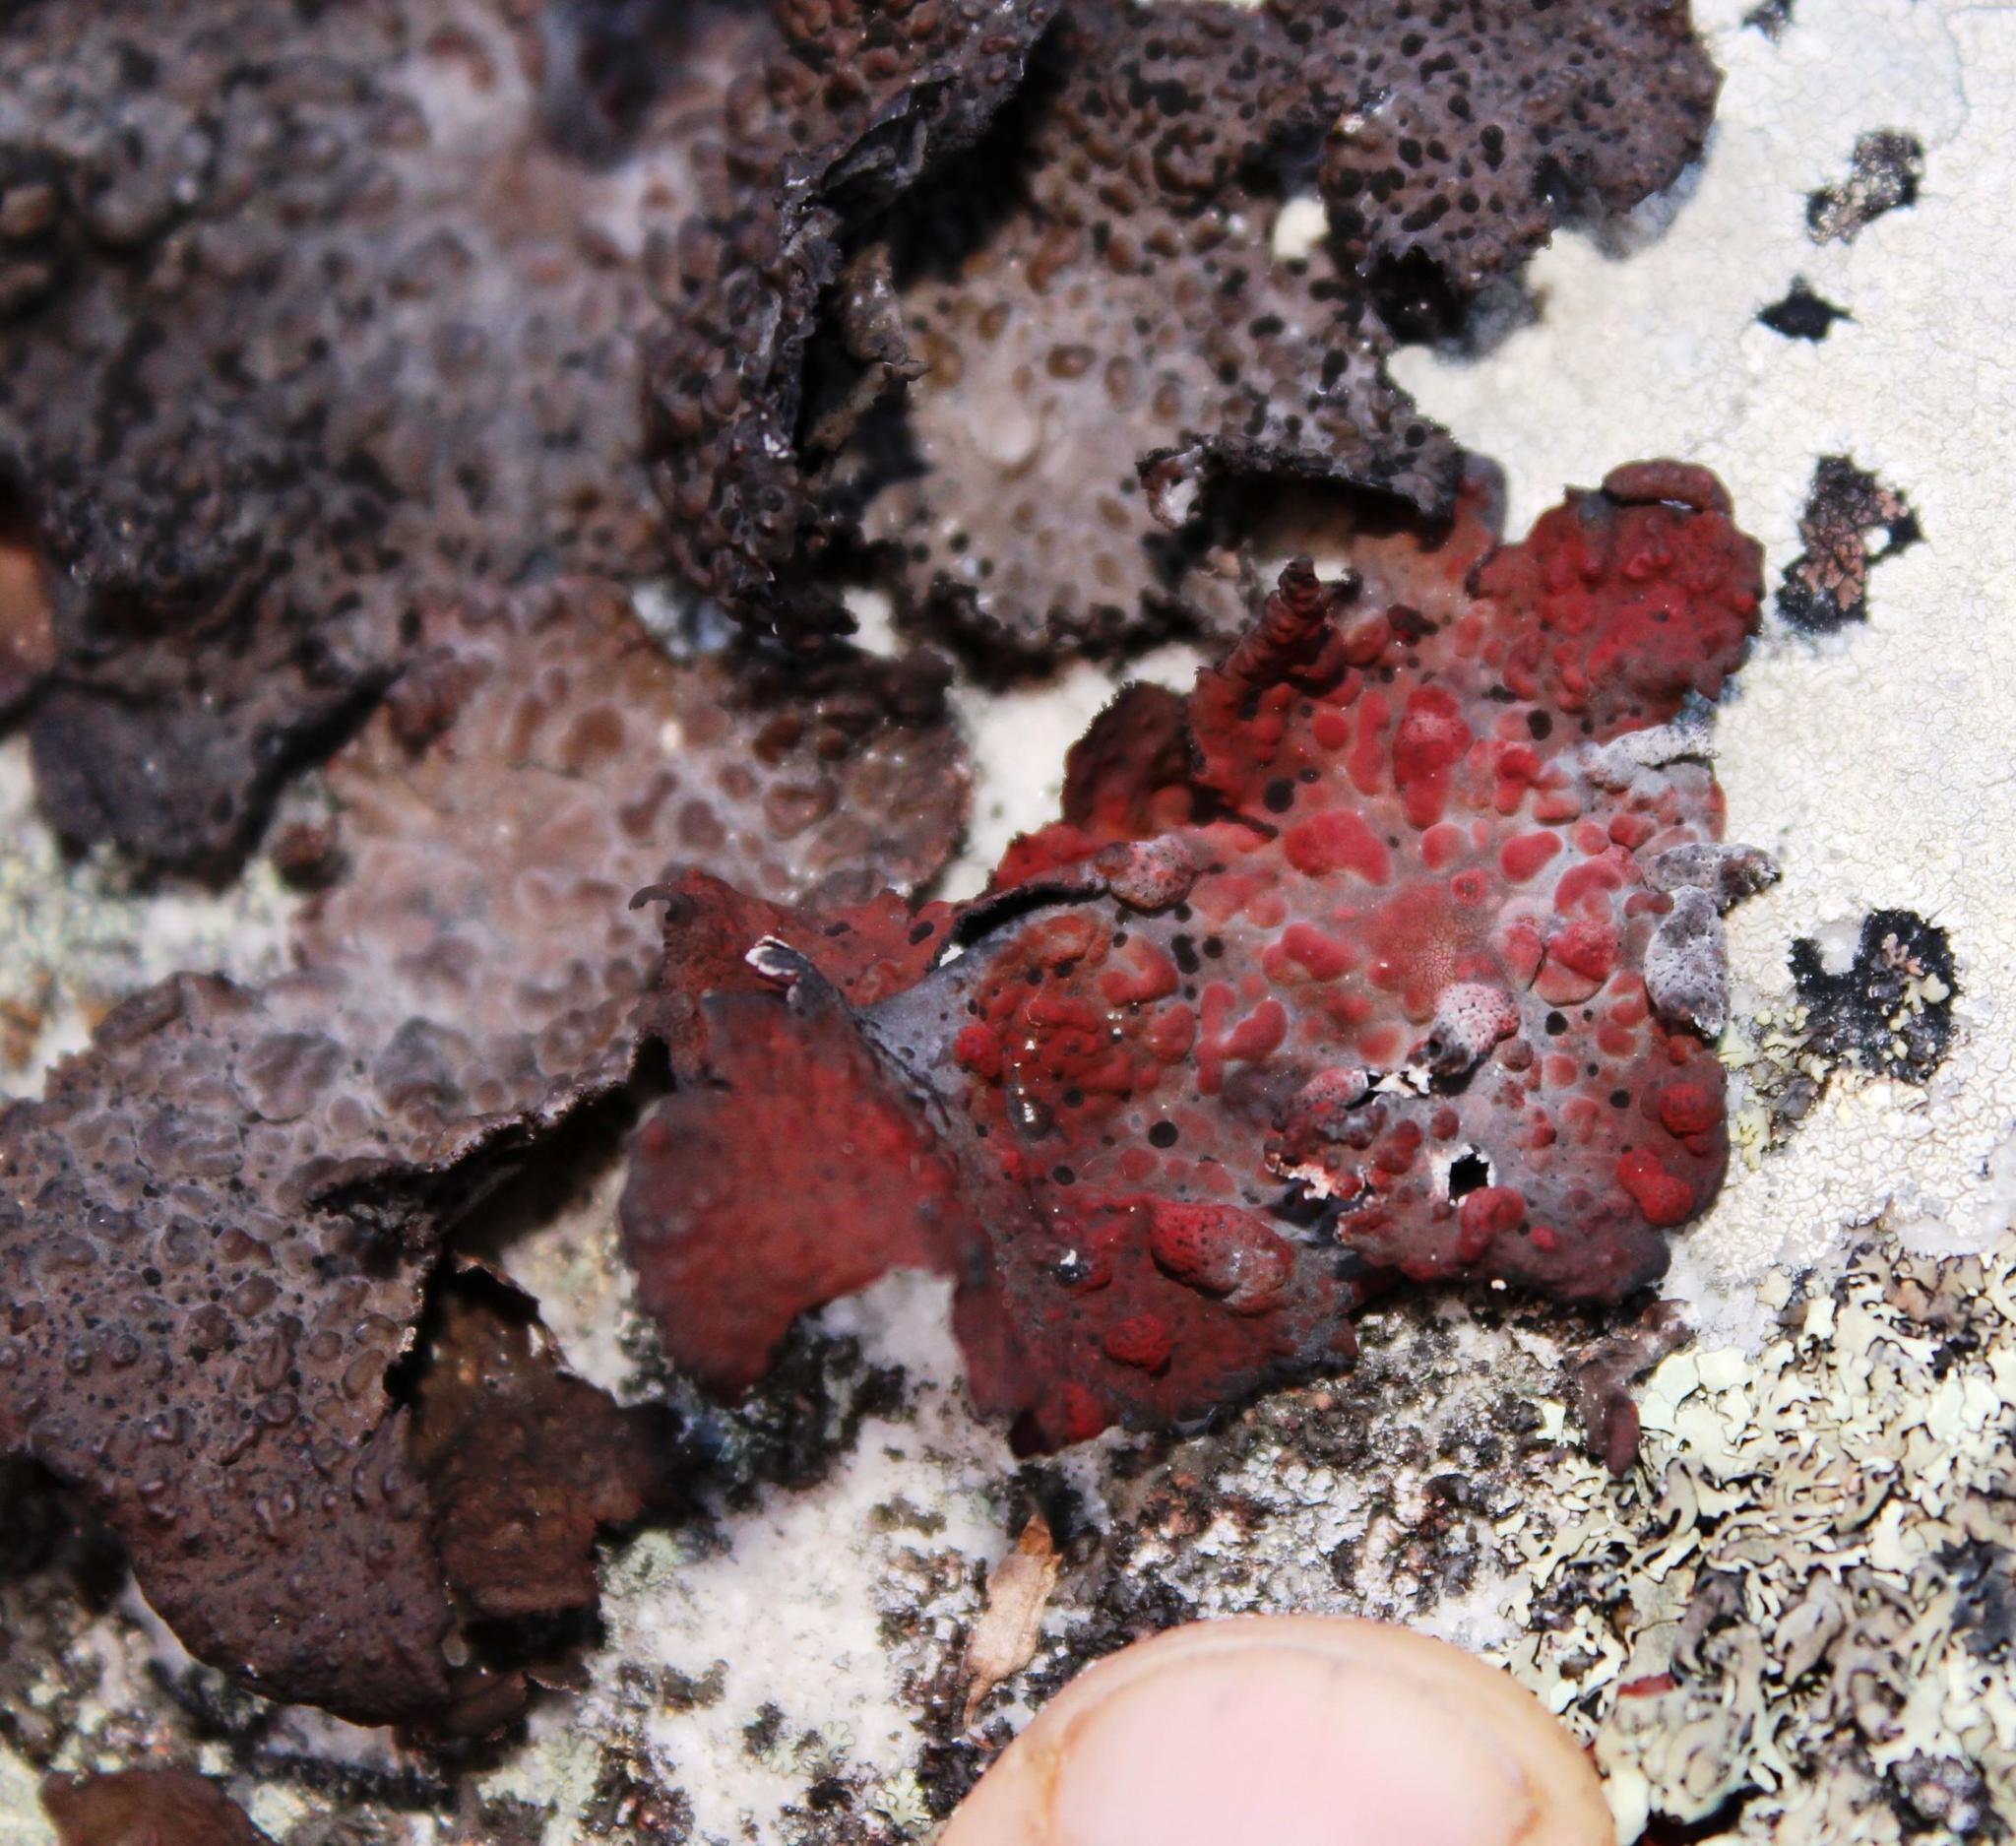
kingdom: Fungi
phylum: Ascomycota
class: Lecanoromycetes
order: Umbilicariales
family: Umbilicariaceae
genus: Lasallia
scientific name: Lasallia rubiginosa
